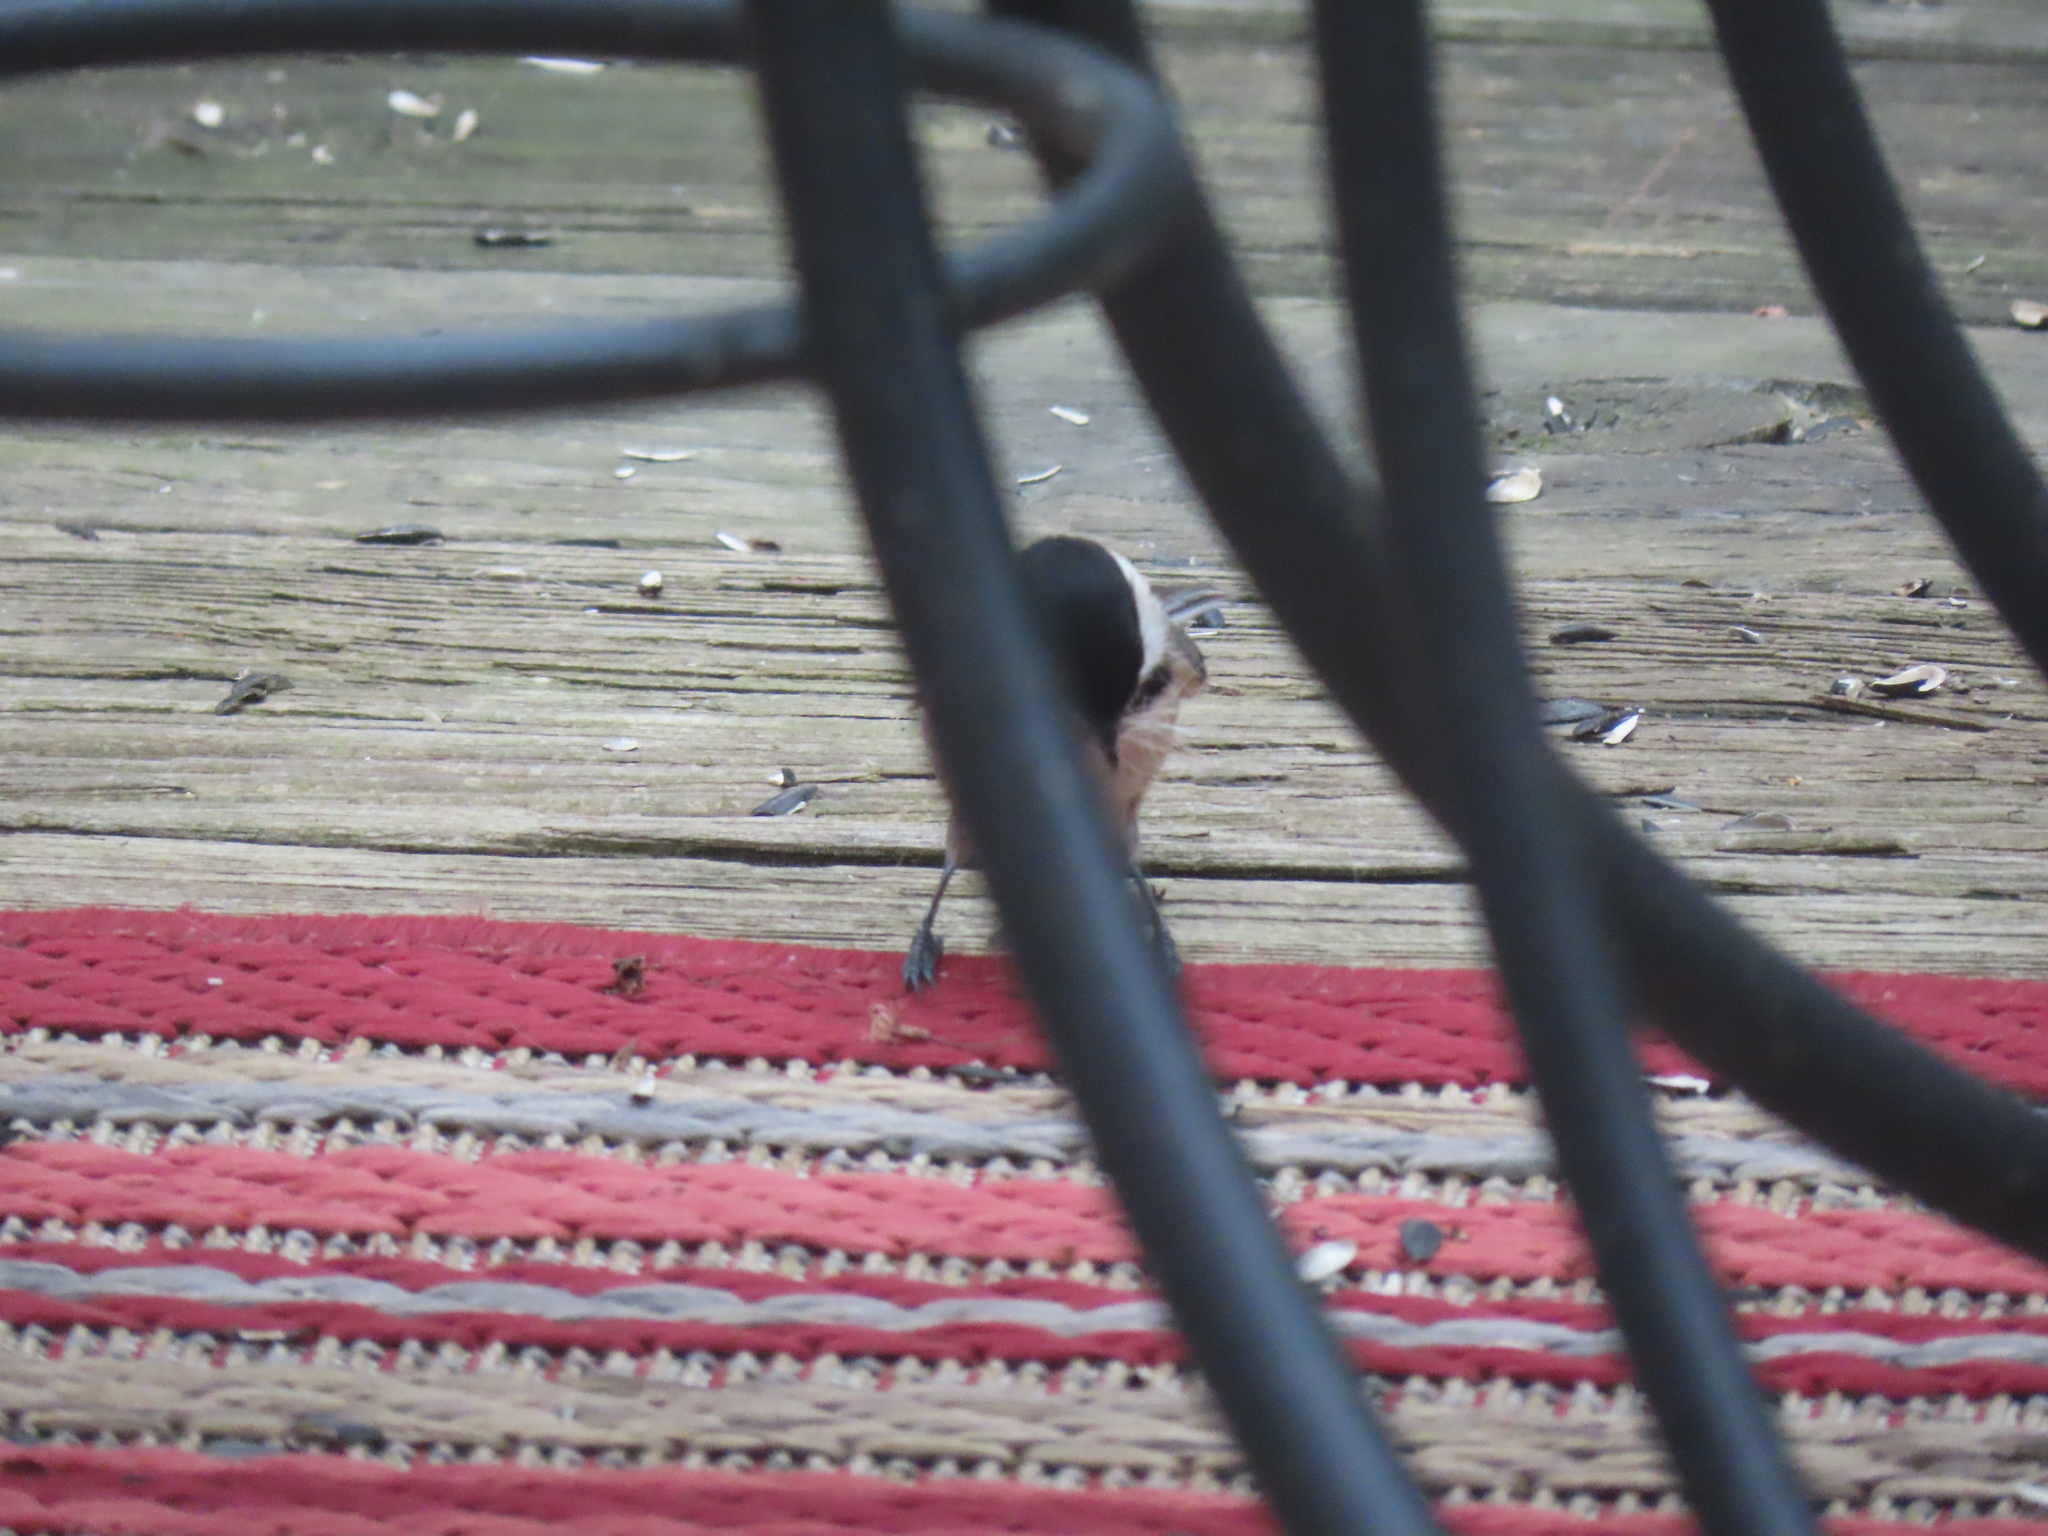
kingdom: Animalia
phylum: Chordata
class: Aves
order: Passeriformes
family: Paridae
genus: Poecile
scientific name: Poecile carolinensis
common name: Carolina chickadee
